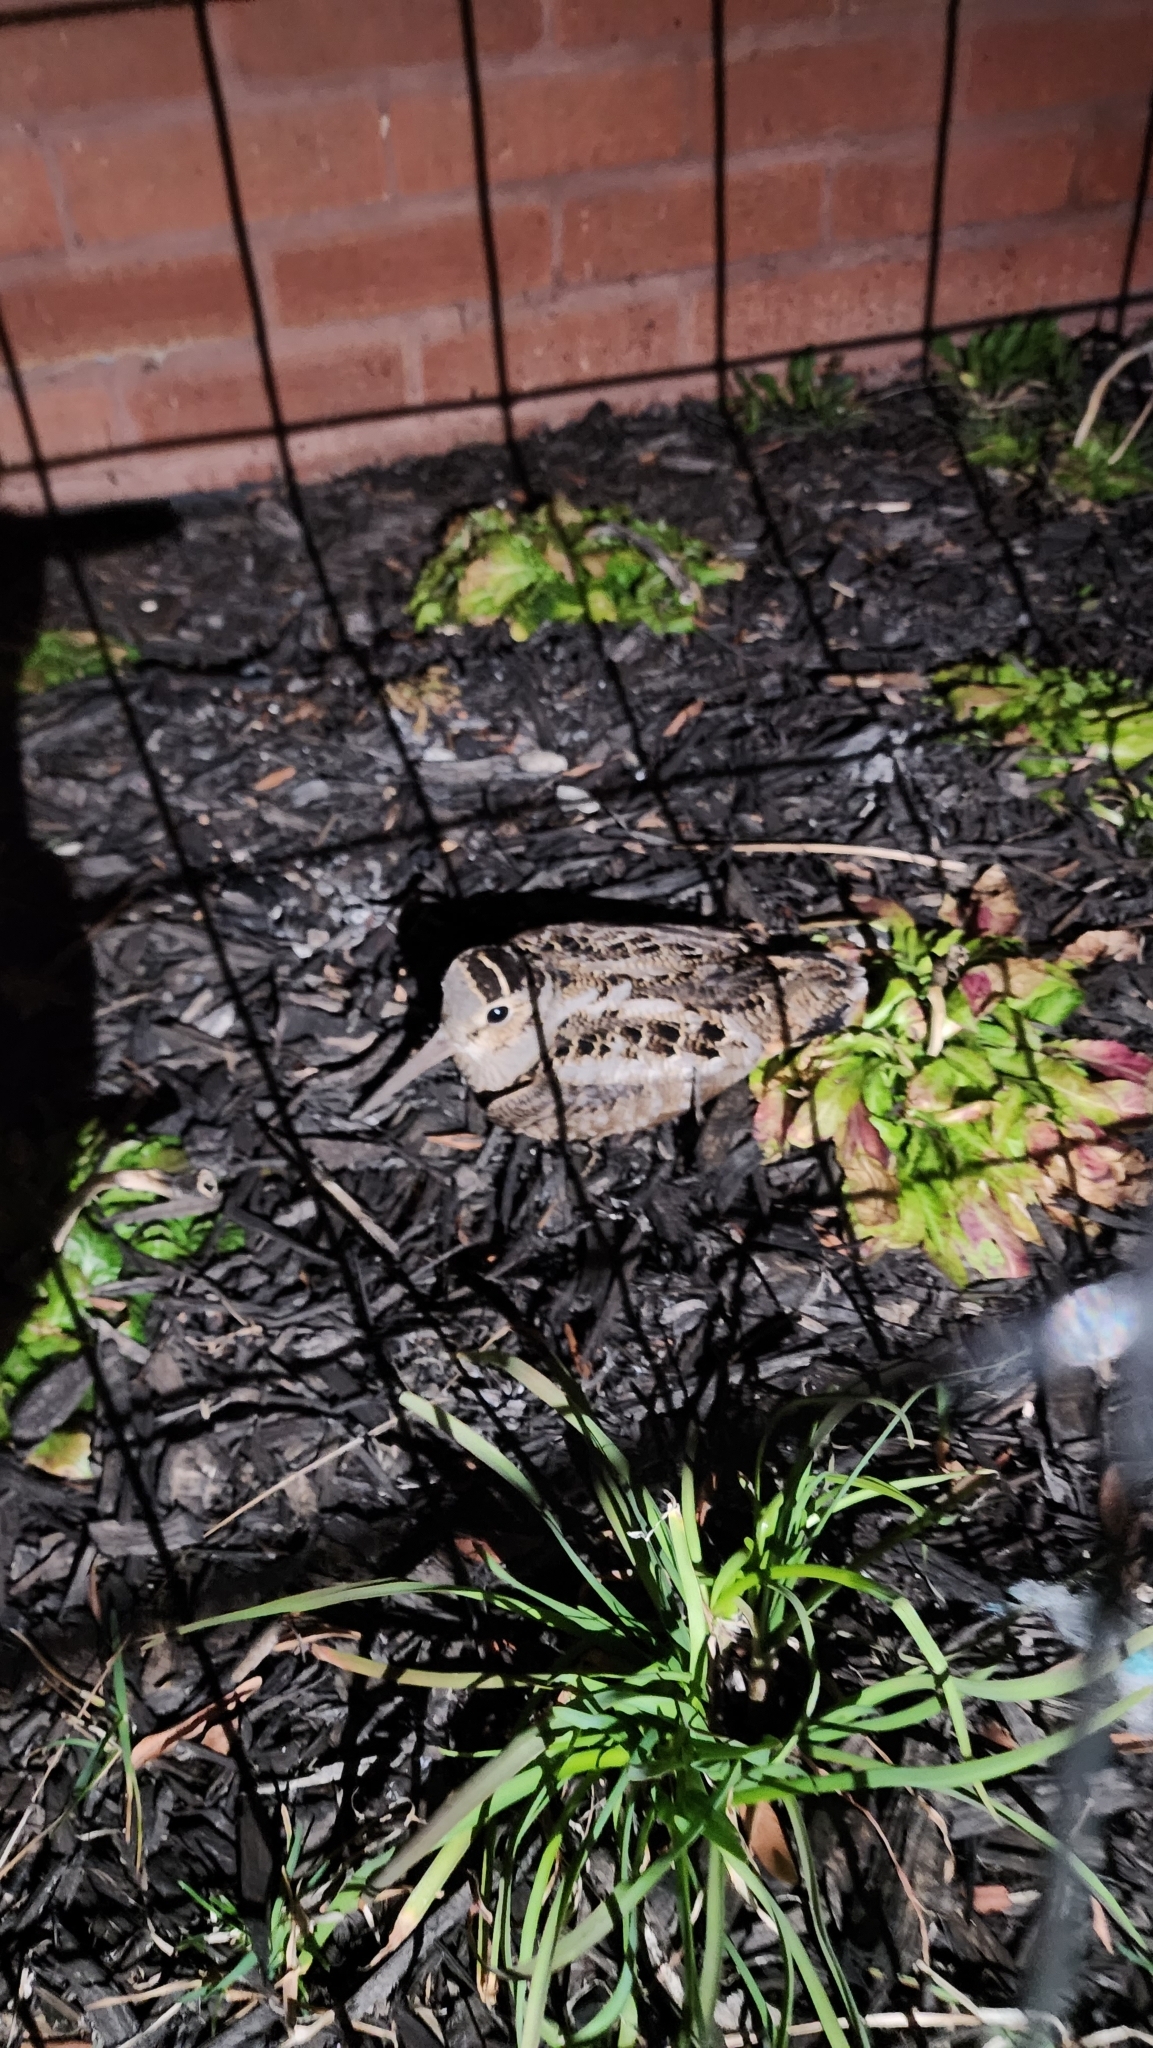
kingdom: Animalia
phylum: Chordata
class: Aves
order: Charadriiformes
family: Scolopacidae
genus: Scolopax
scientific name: Scolopax minor
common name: American woodcock
